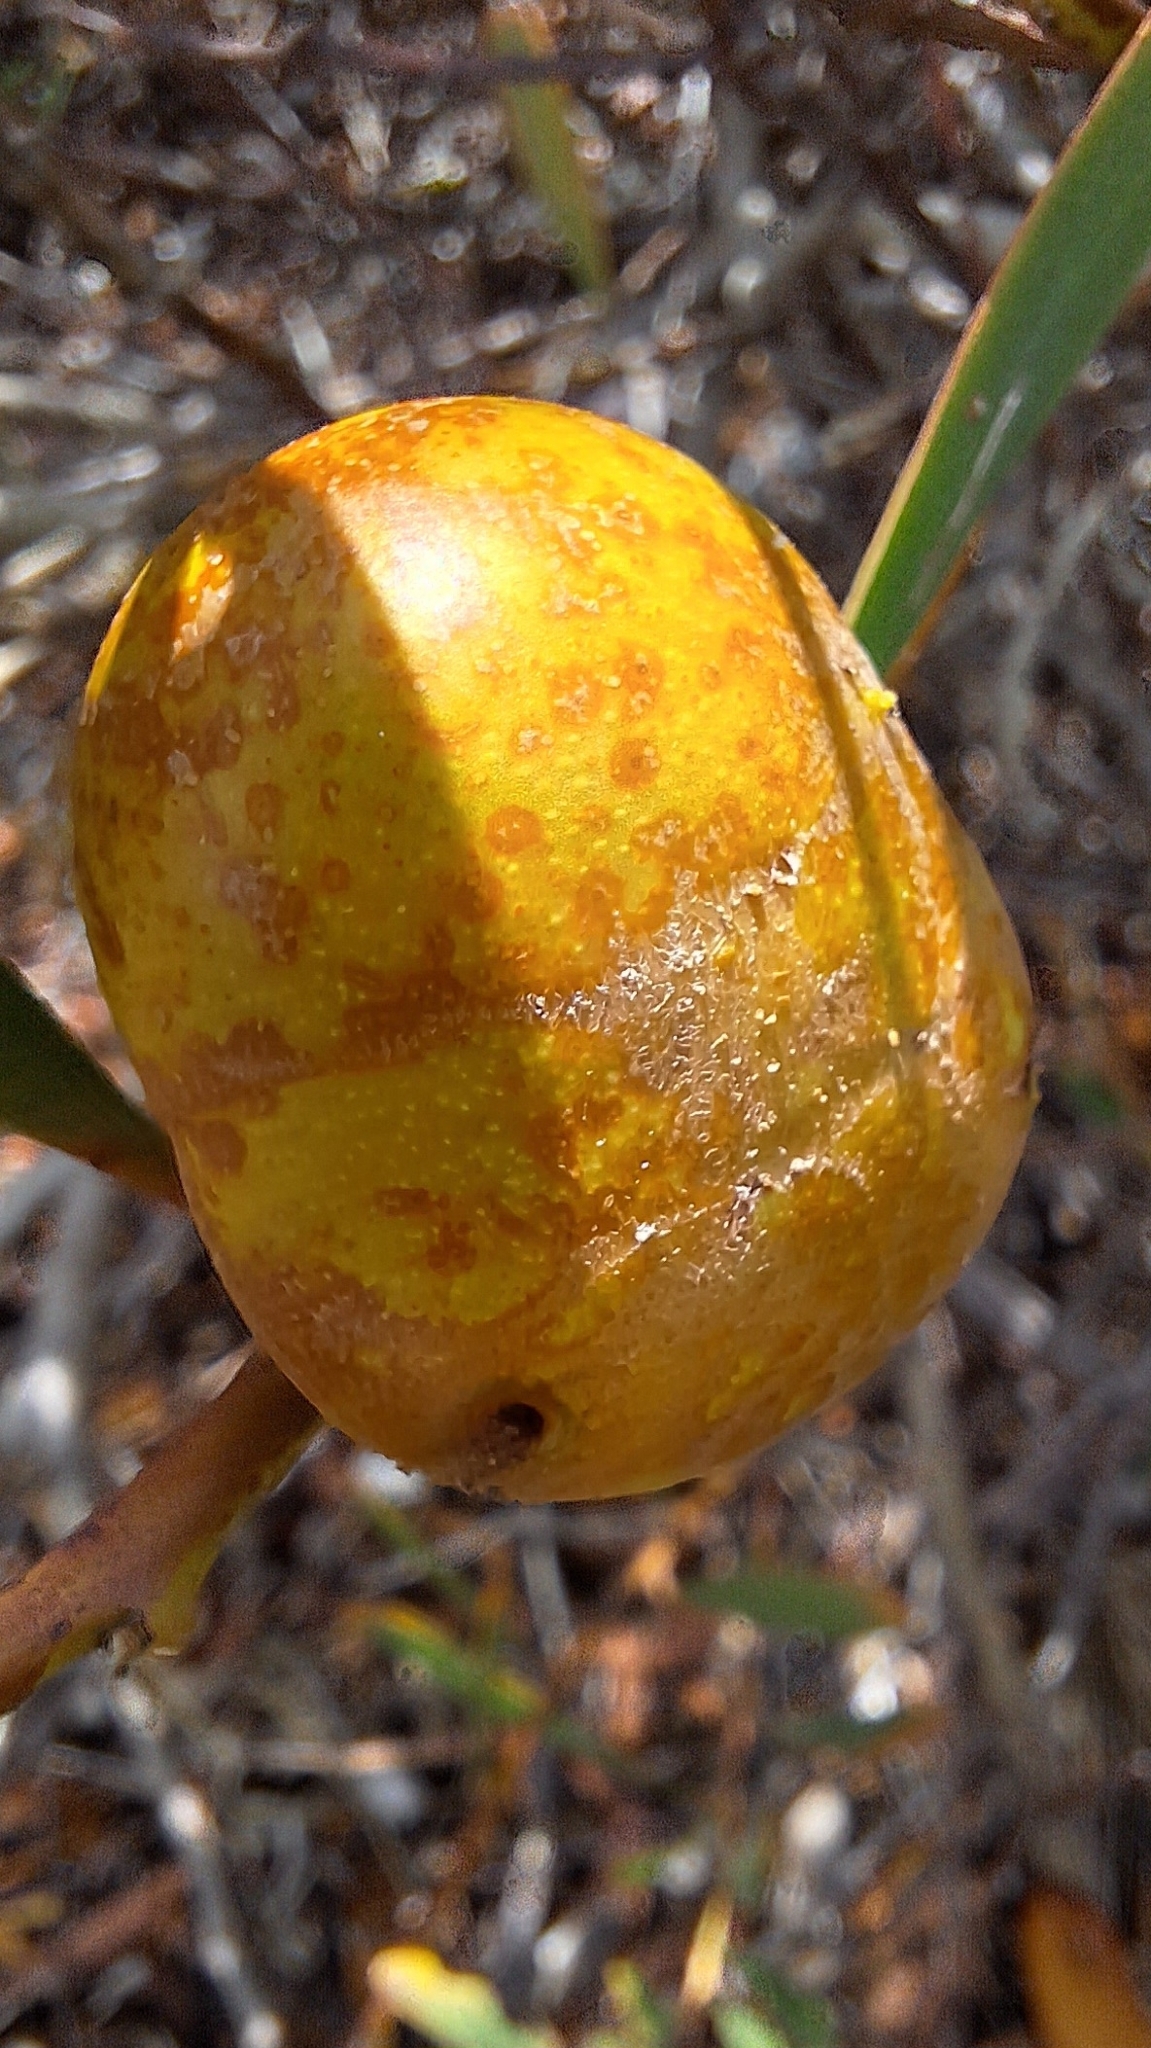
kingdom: Animalia
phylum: Arthropoda
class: Insecta
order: Hymenoptera
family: Pteromalidae
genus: Trichilogaster
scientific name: Trichilogaster acaciaelongifoliae
